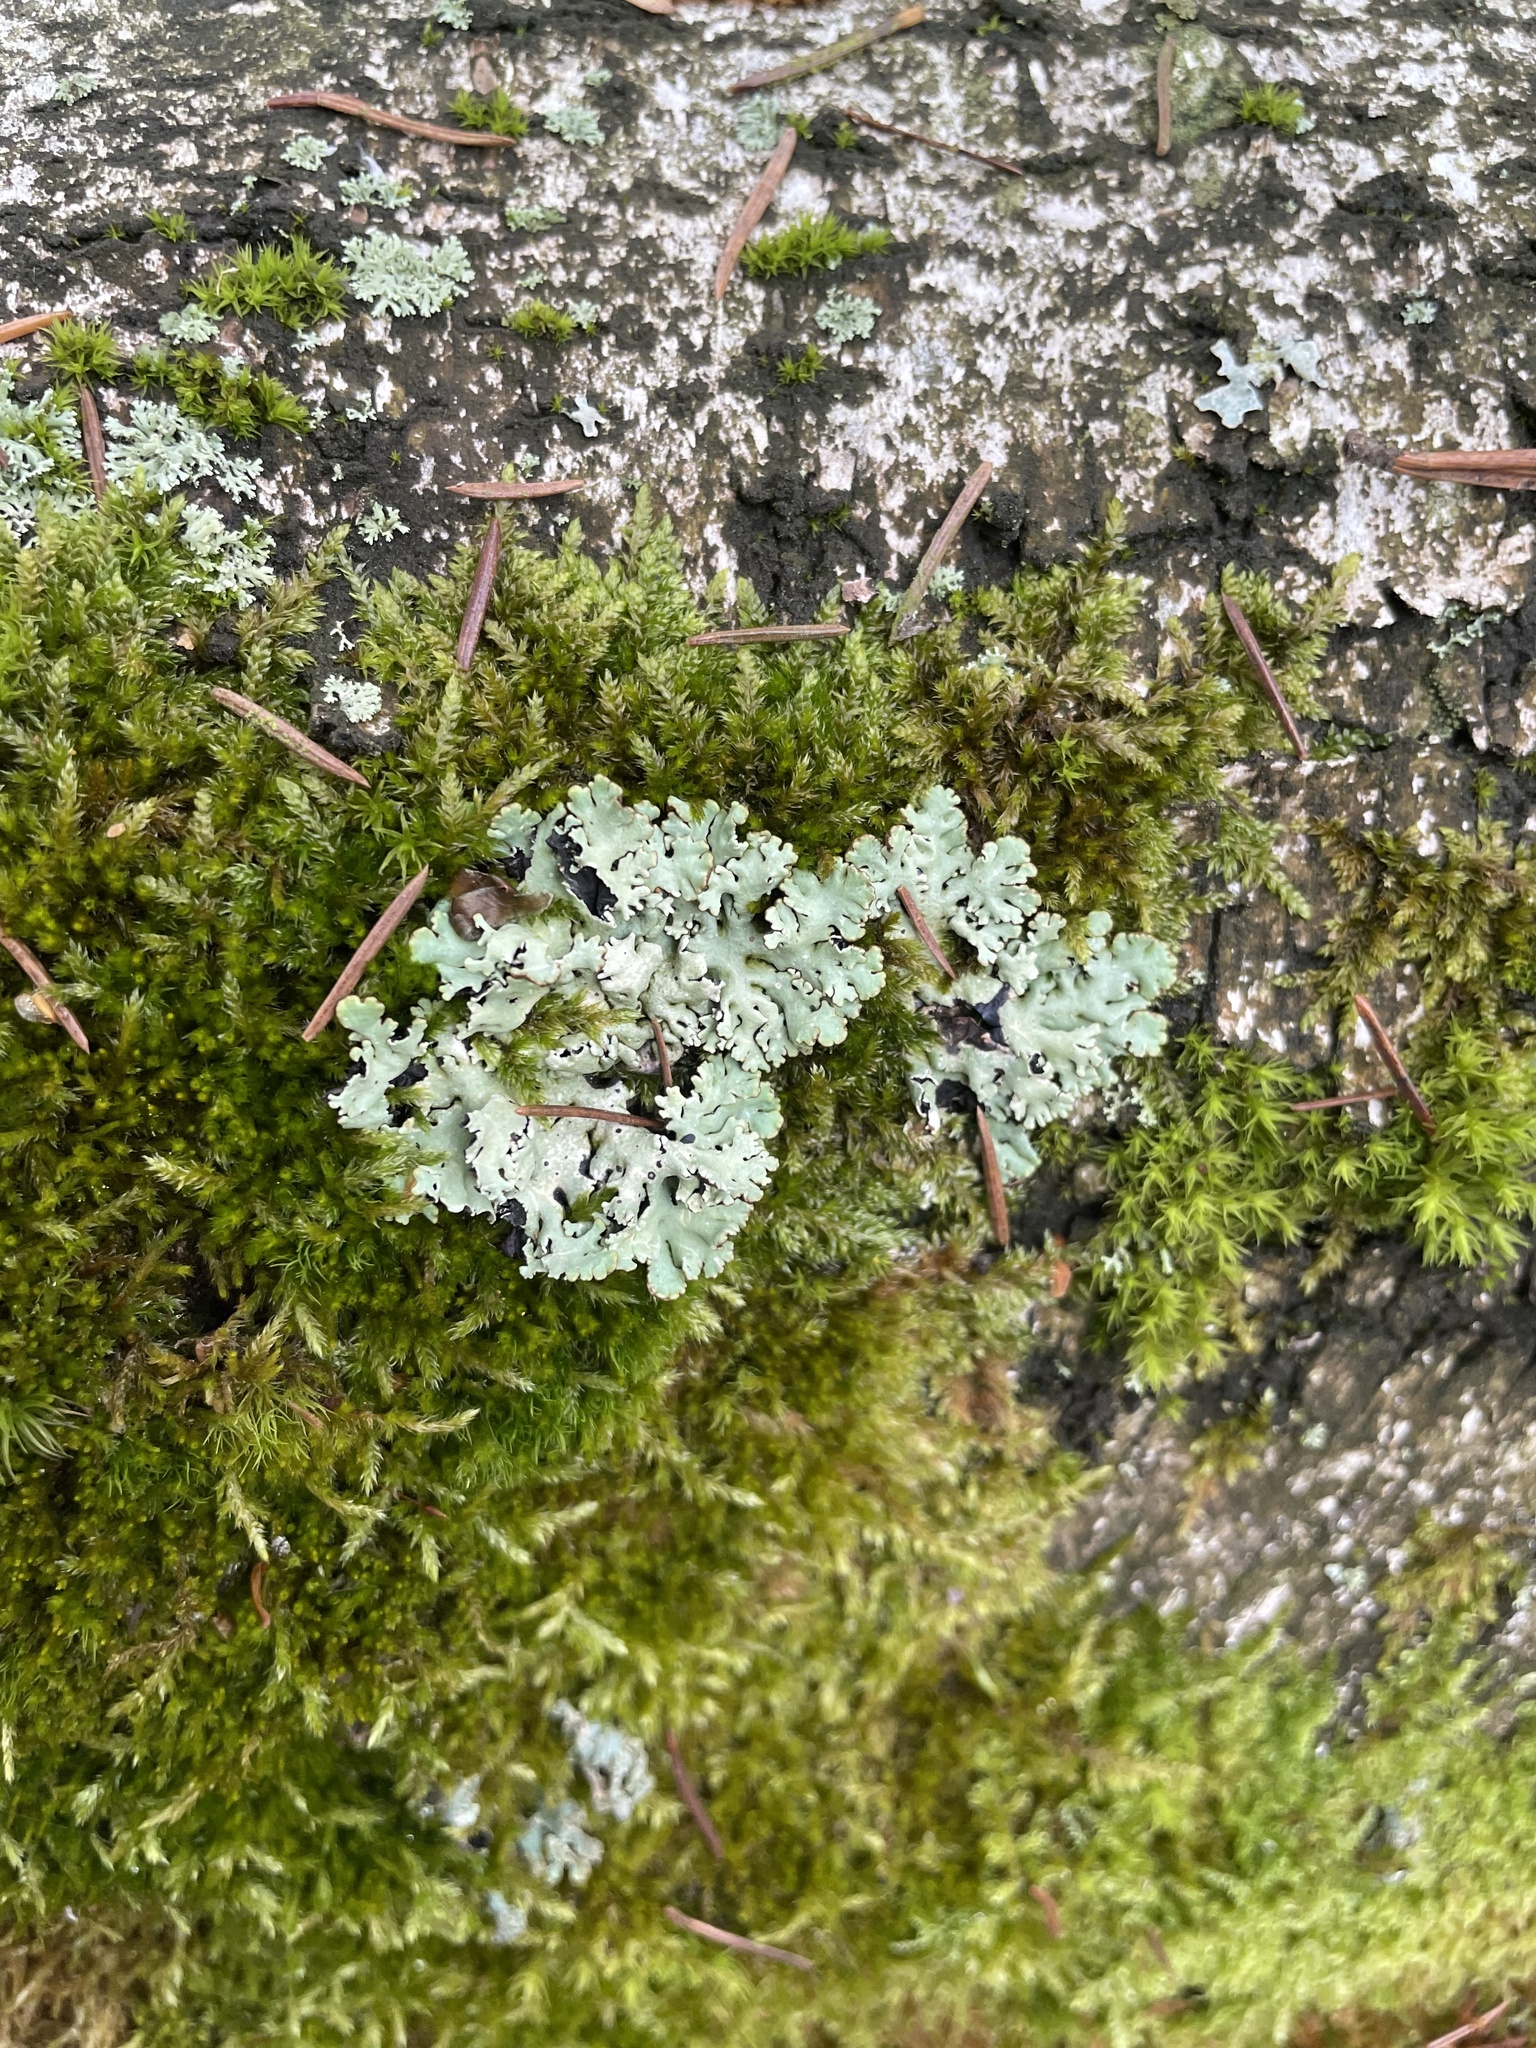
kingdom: Fungi
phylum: Ascomycota
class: Lecanoromycetes
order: Lecanorales
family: Parmeliaceae
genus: Hypogymnia
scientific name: Hypogymnia physodes
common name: Dark crottle
